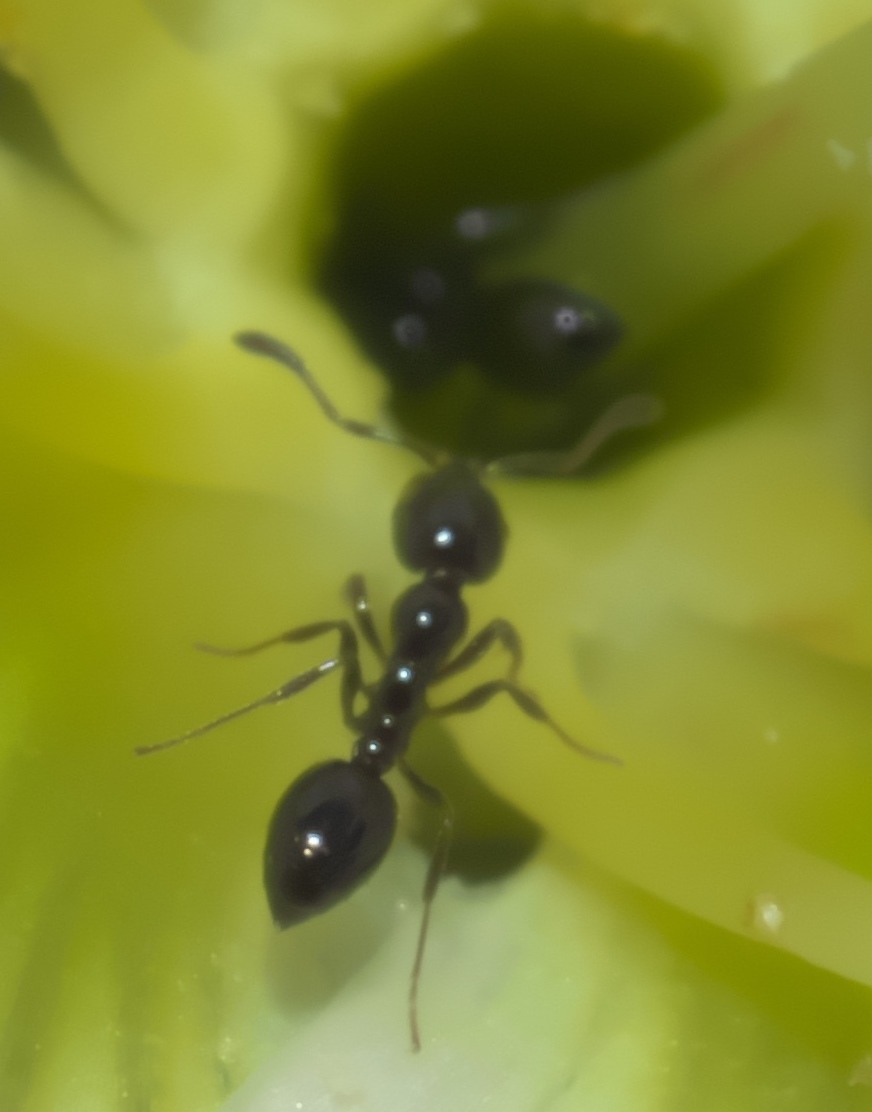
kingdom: Animalia
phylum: Arthropoda
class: Insecta
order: Hymenoptera
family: Formicidae
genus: Monomorium
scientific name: Monomorium minimum
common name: Little black ant
